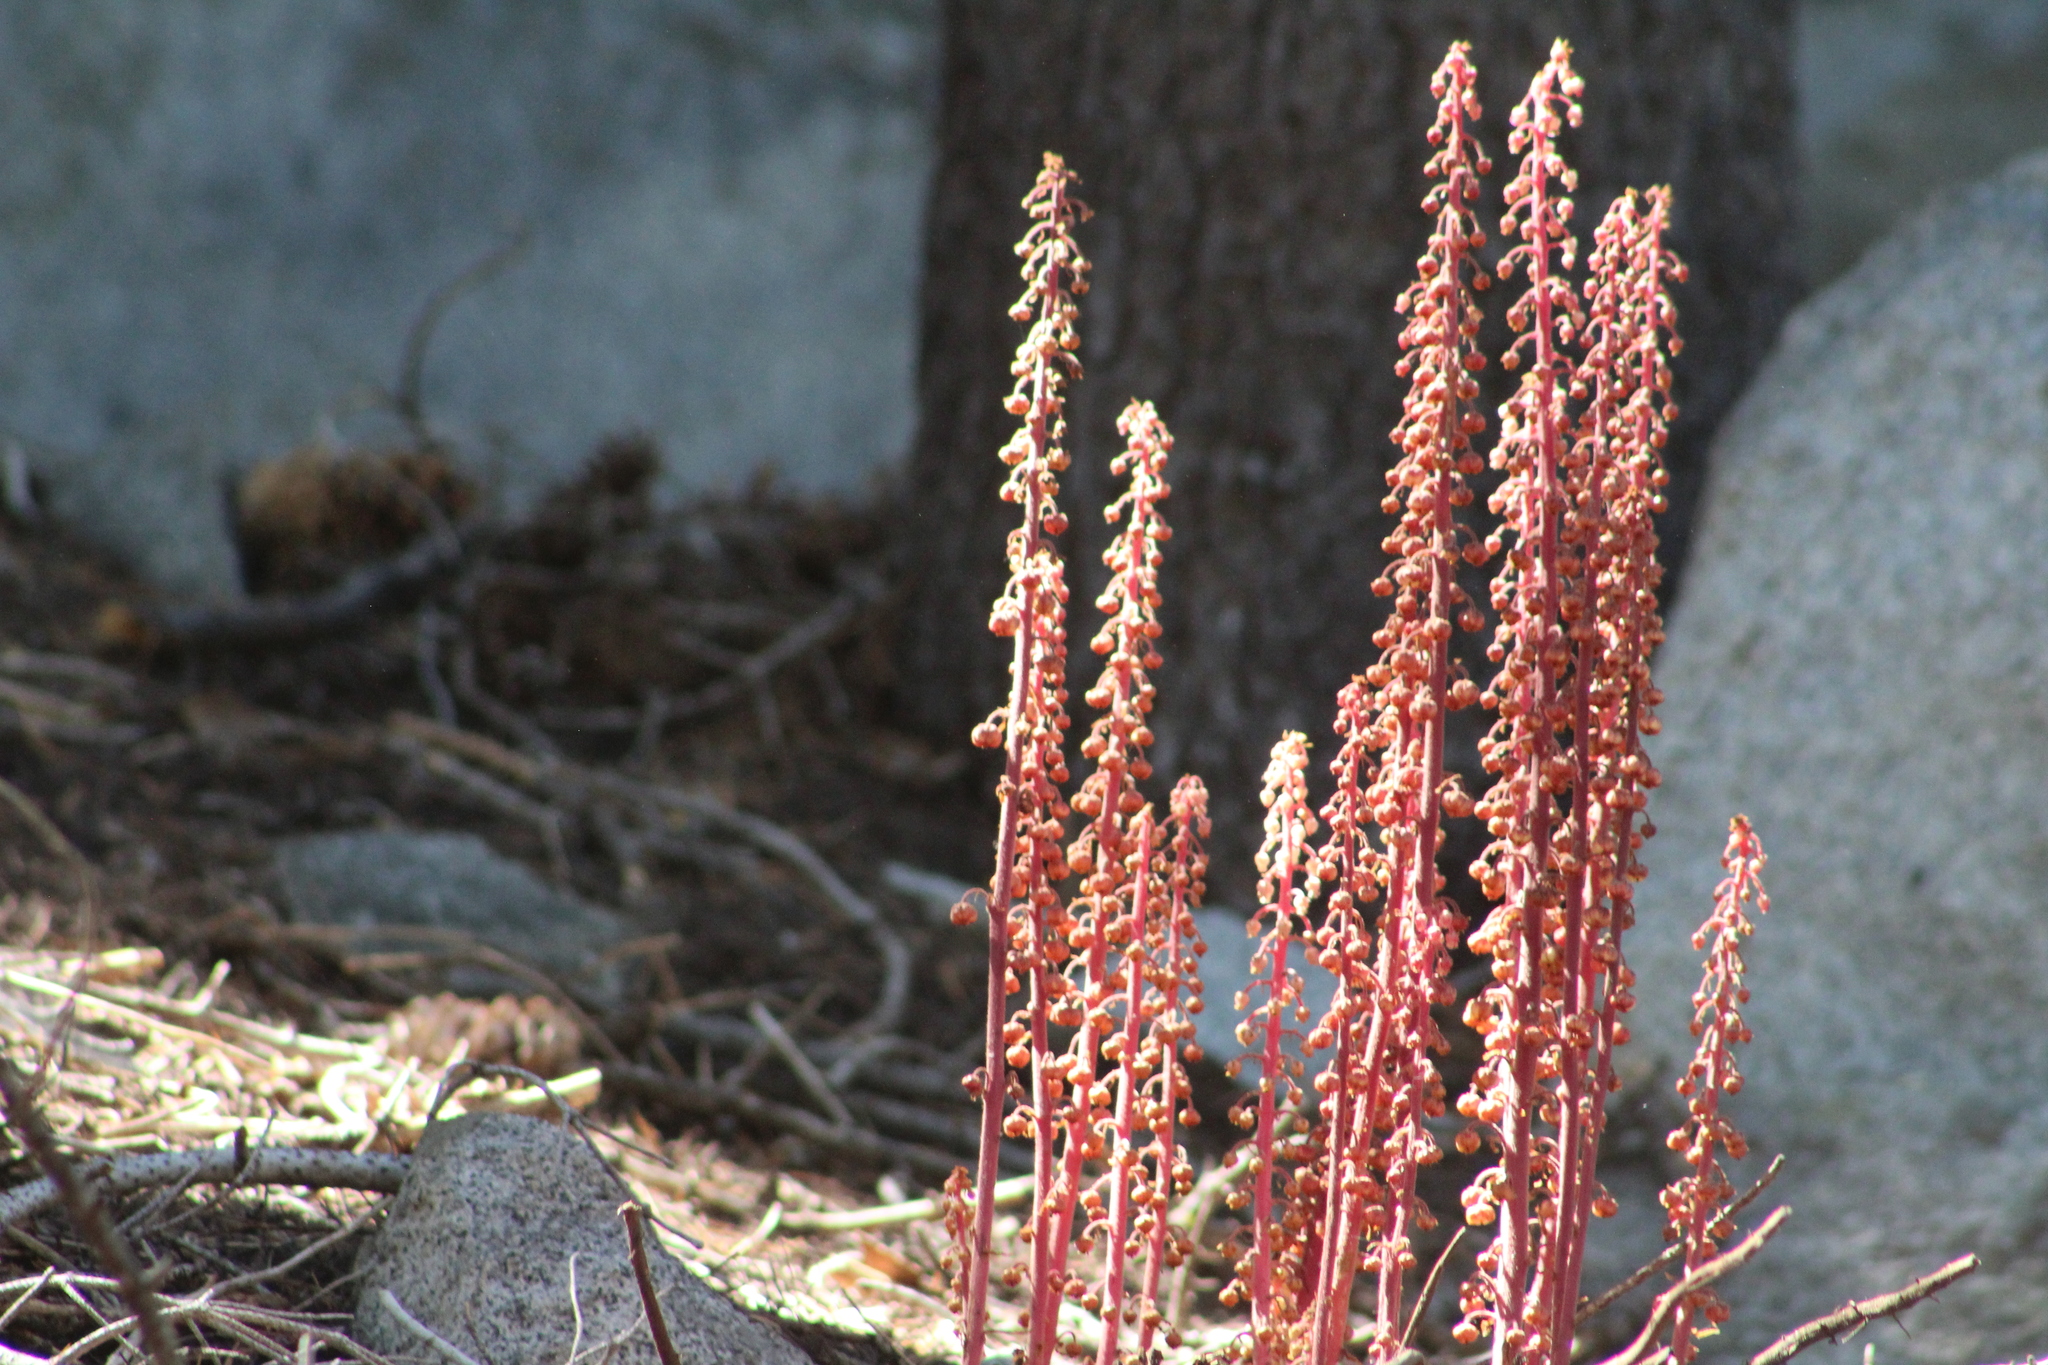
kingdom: Plantae
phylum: Tracheophyta
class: Magnoliopsida
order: Ericales
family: Ericaceae
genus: Pterospora
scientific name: Pterospora andromedea
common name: Giant bird's-nest
